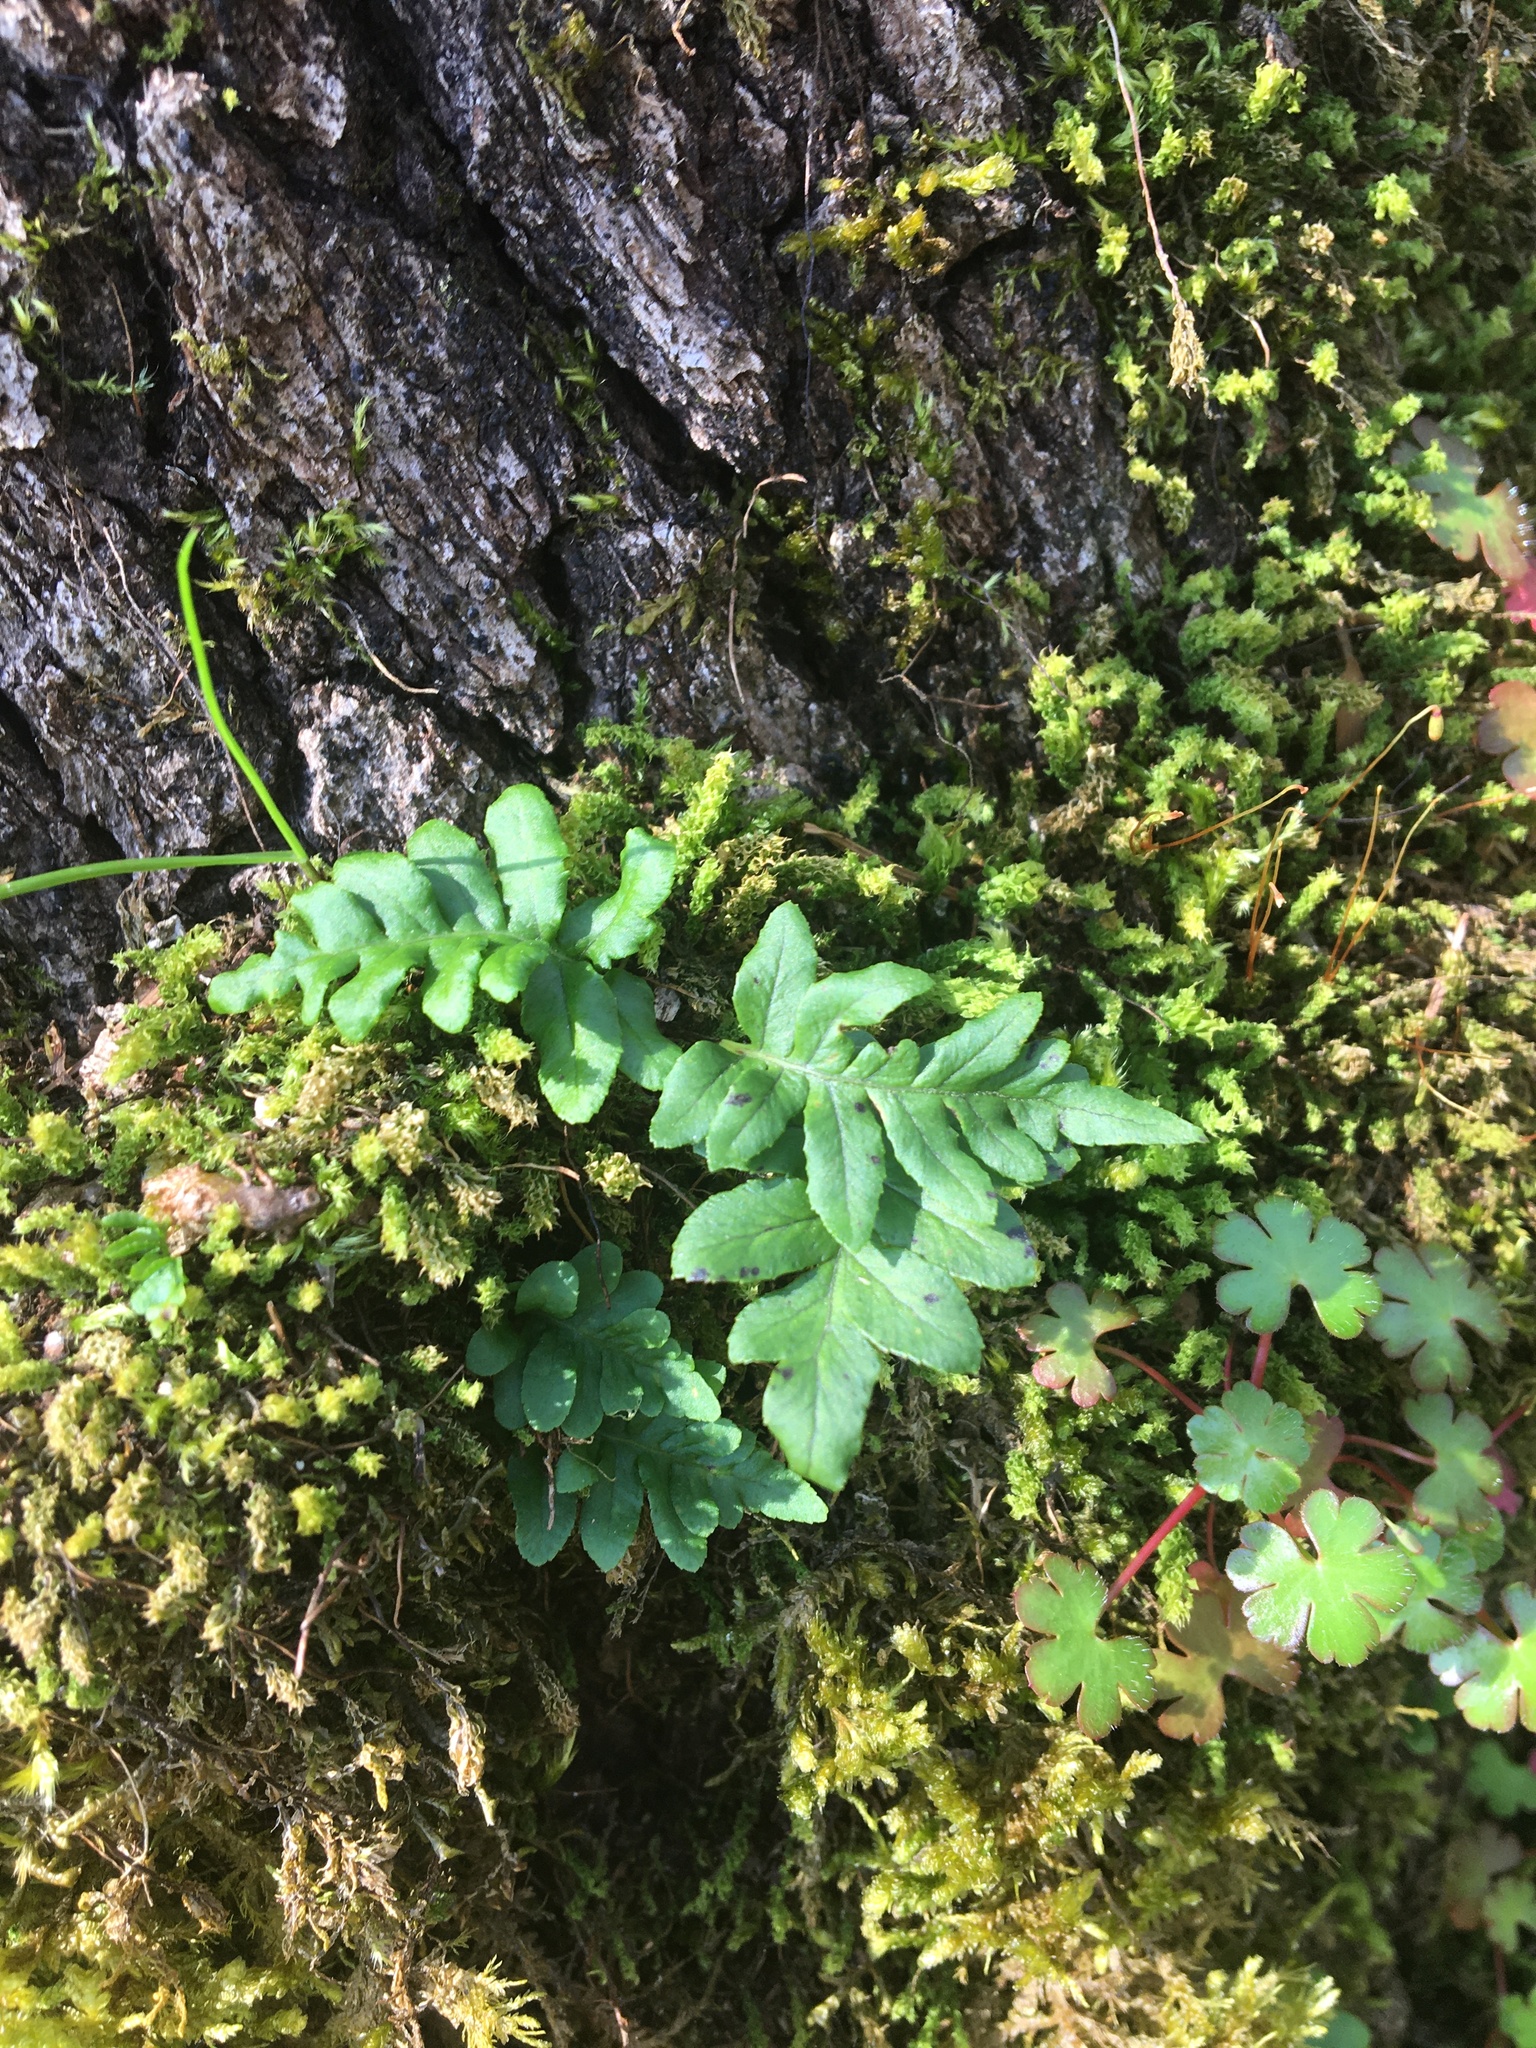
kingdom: Plantae
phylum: Tracheophyta
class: Polypodiopsida
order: Polypodiales
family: Polypodiaceae
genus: Polypodium
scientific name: Polypodium glycyrrhiza
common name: Licorice fern
